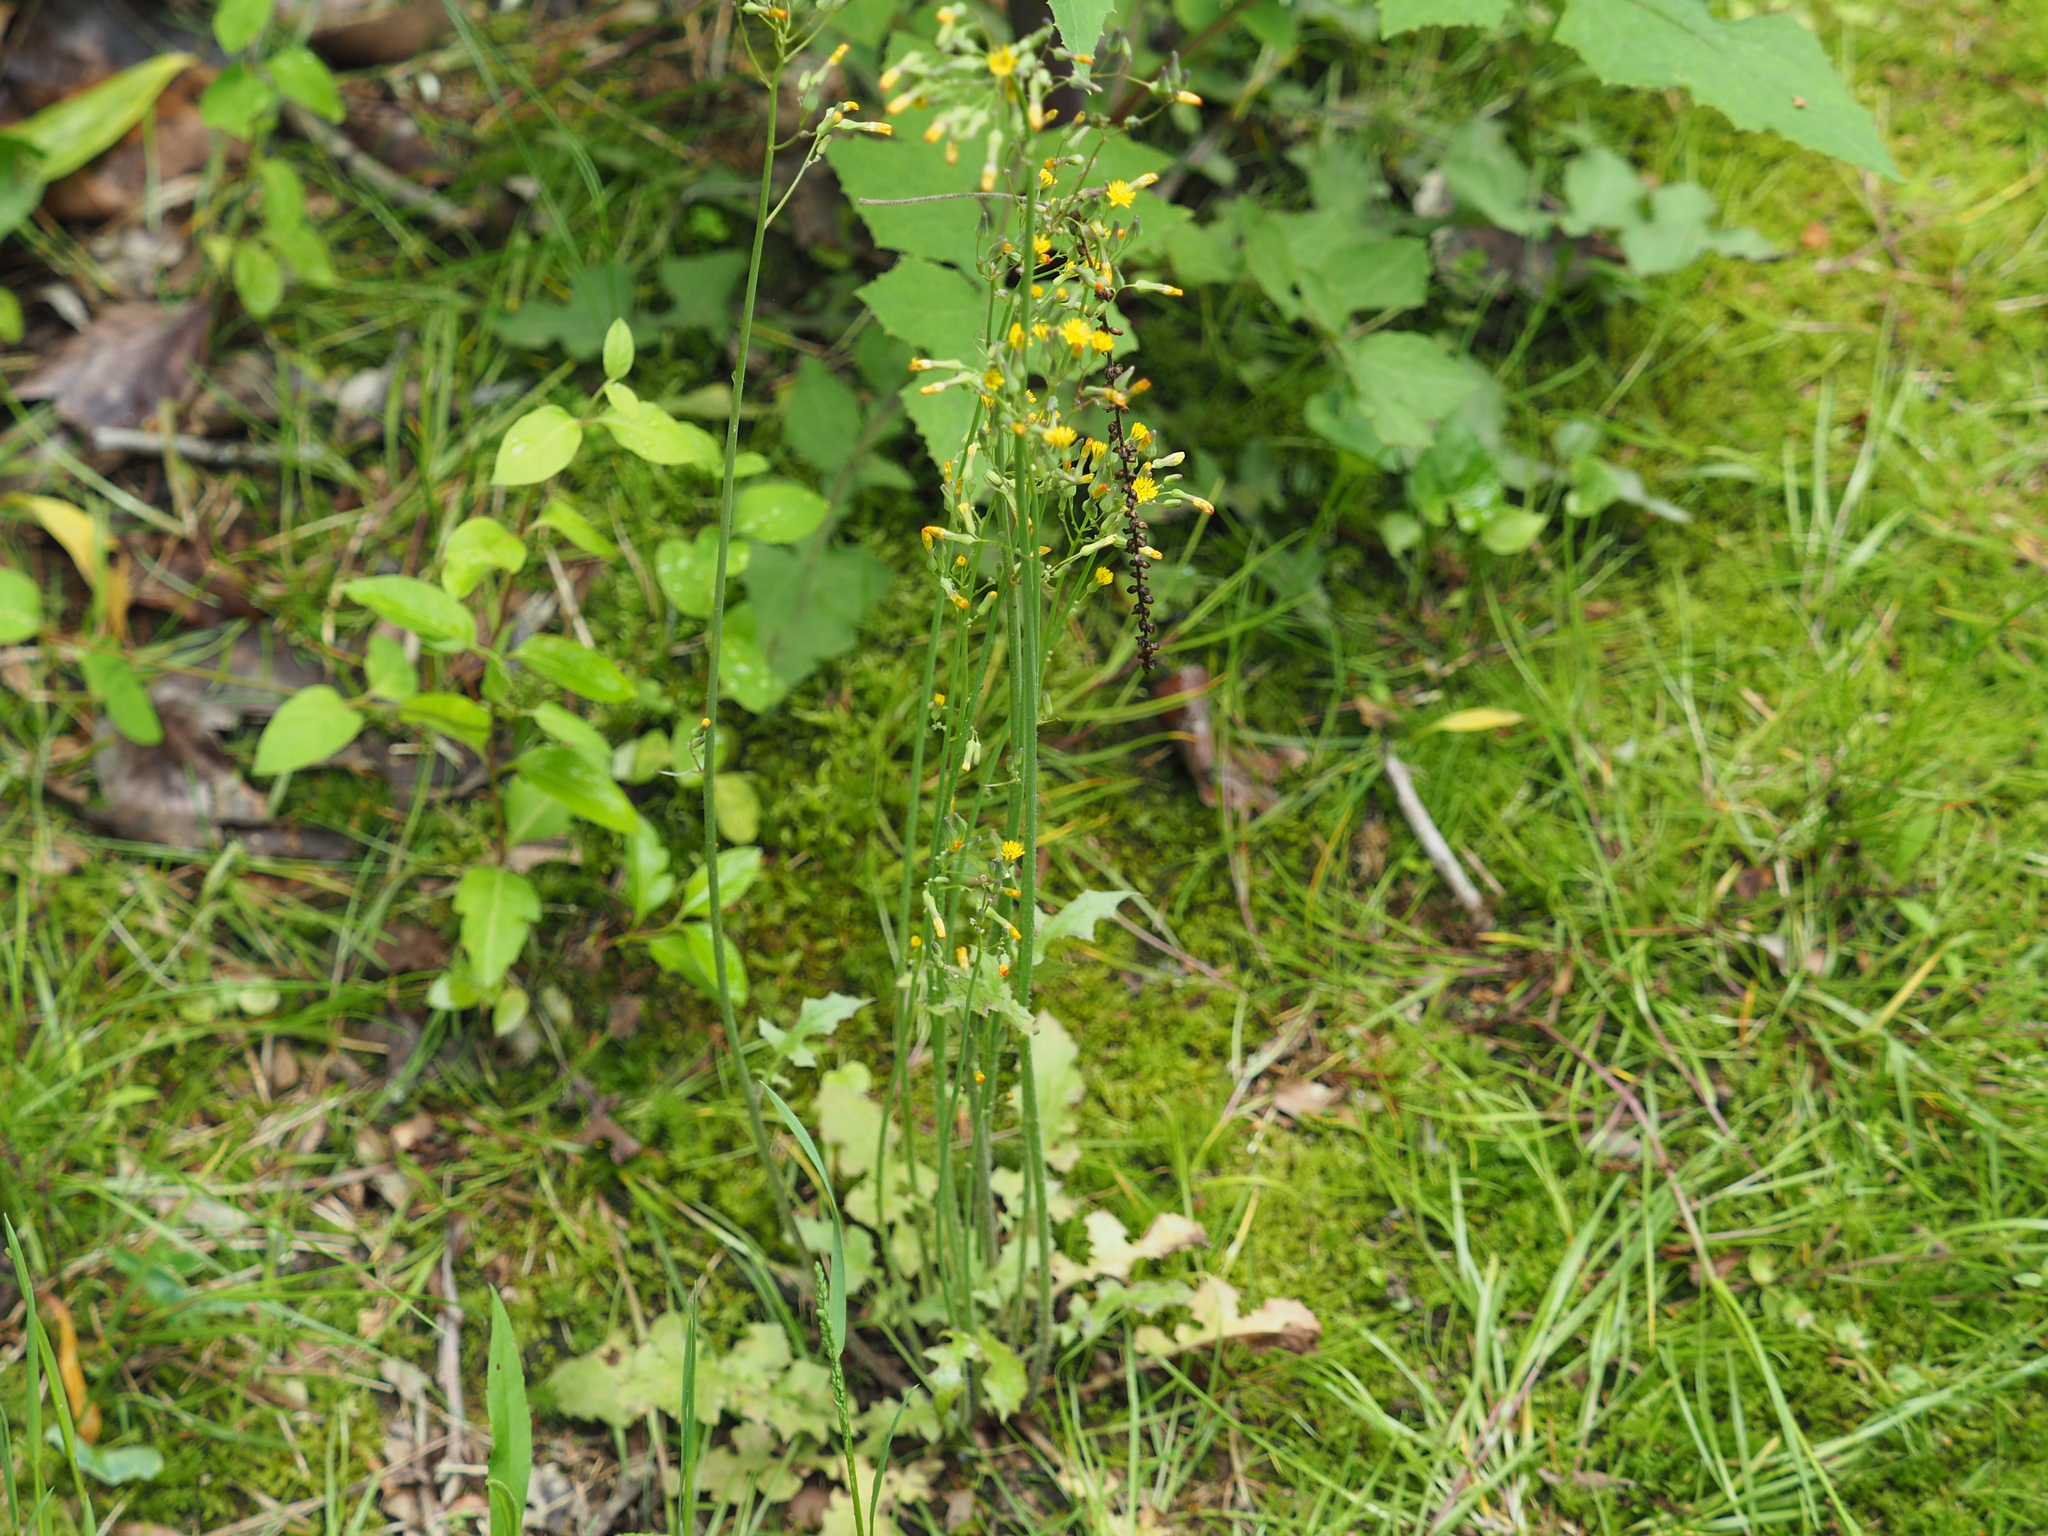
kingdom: Plantae
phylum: Tracheophyta
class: Magnoliopsida
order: Asterales
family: Asteraceae
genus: Youngia
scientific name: Youngia japonica
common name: Oriental false hawksbeard
